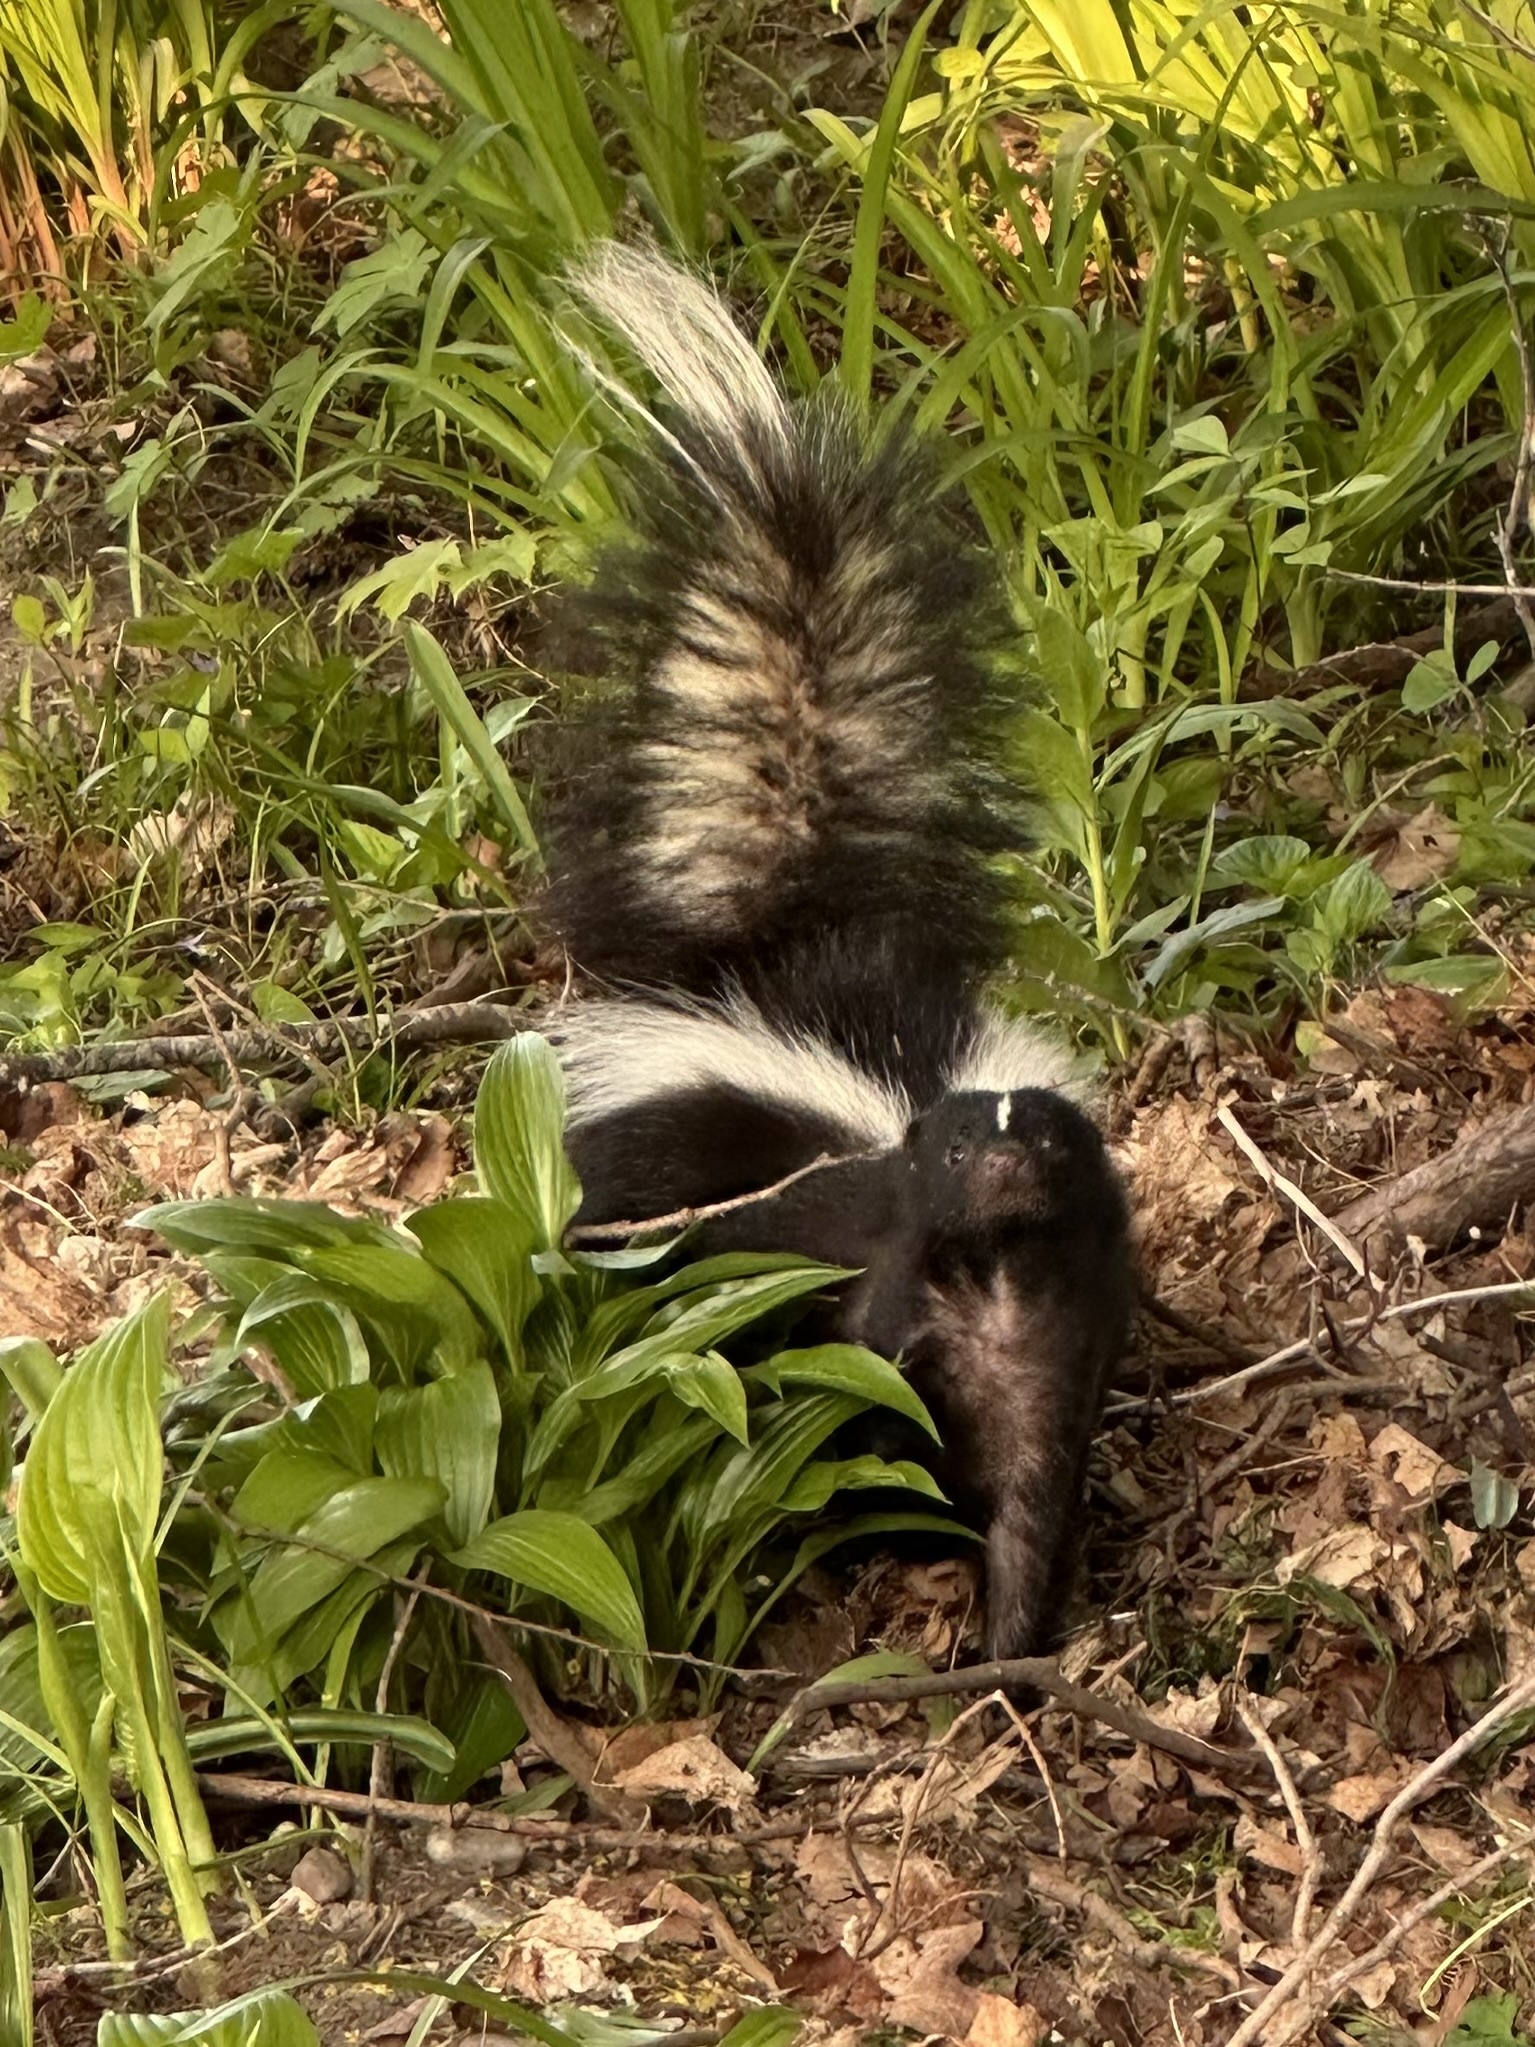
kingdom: Animalia
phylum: Chordata
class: Mammalia
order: Carnivora
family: Mephitidae
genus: Mephitis
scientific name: Mephitis mephitis
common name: Striped skunk
